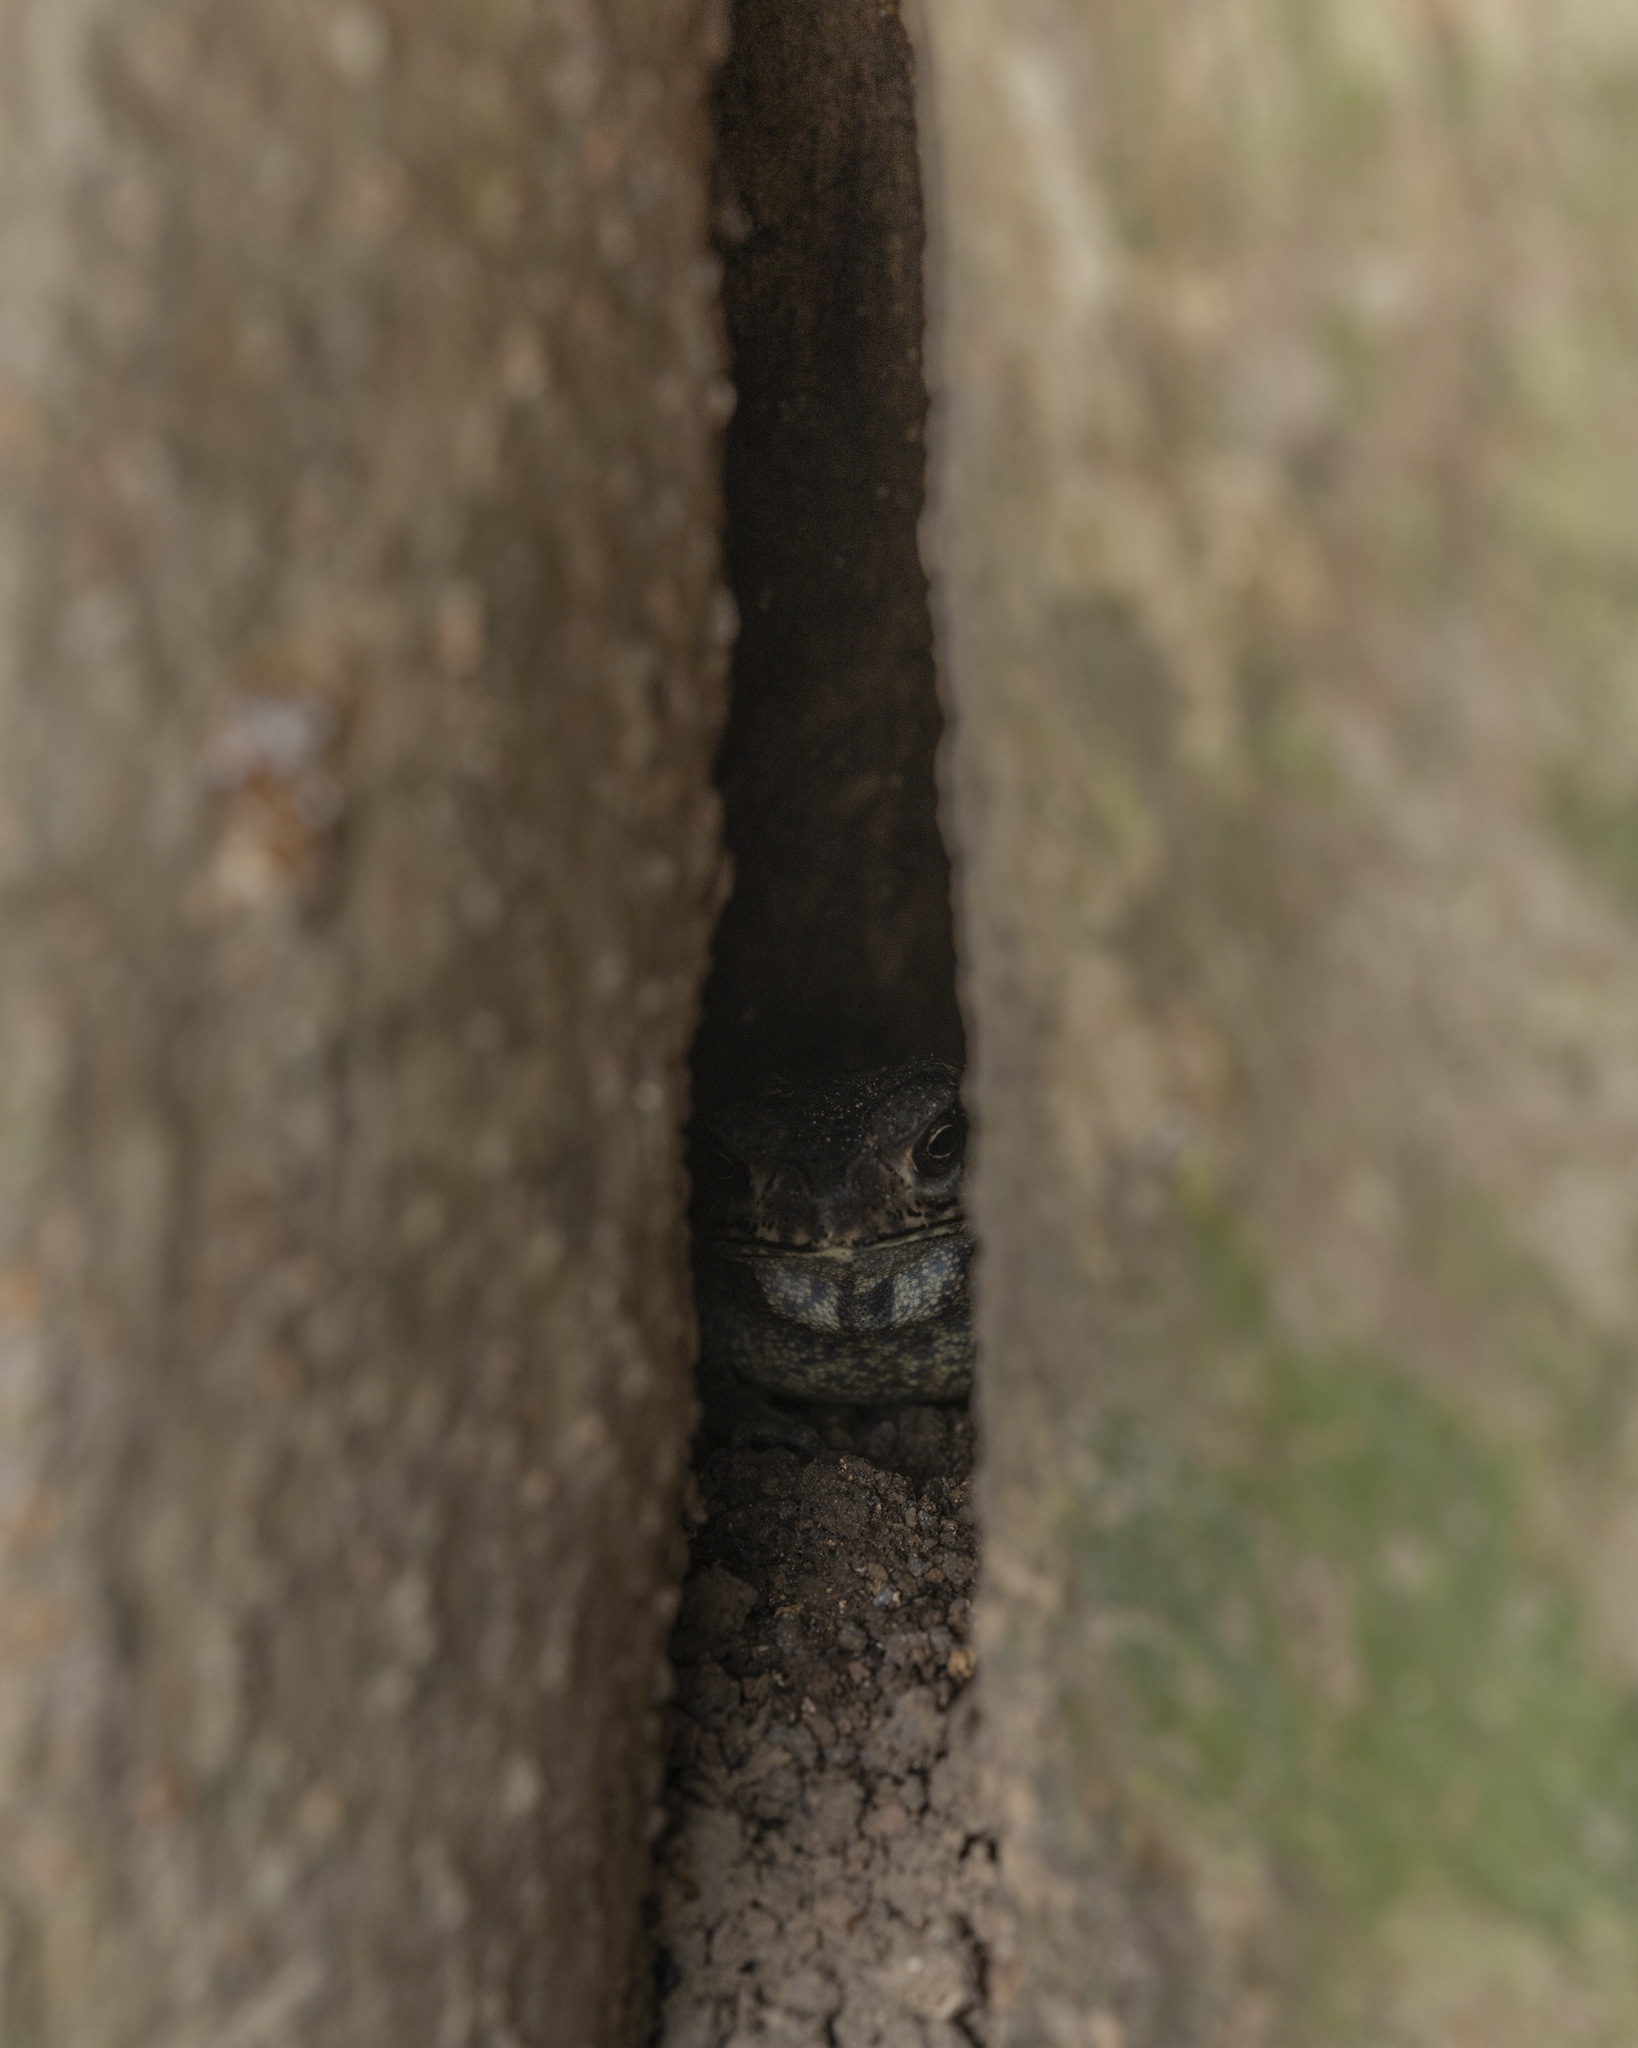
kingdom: Animalia
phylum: Chordata
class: Amphibia
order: Anura
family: Bufonidae
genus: Duttaphrynus
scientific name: Duttaphrynus melanostictus
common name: Common sunda toad
